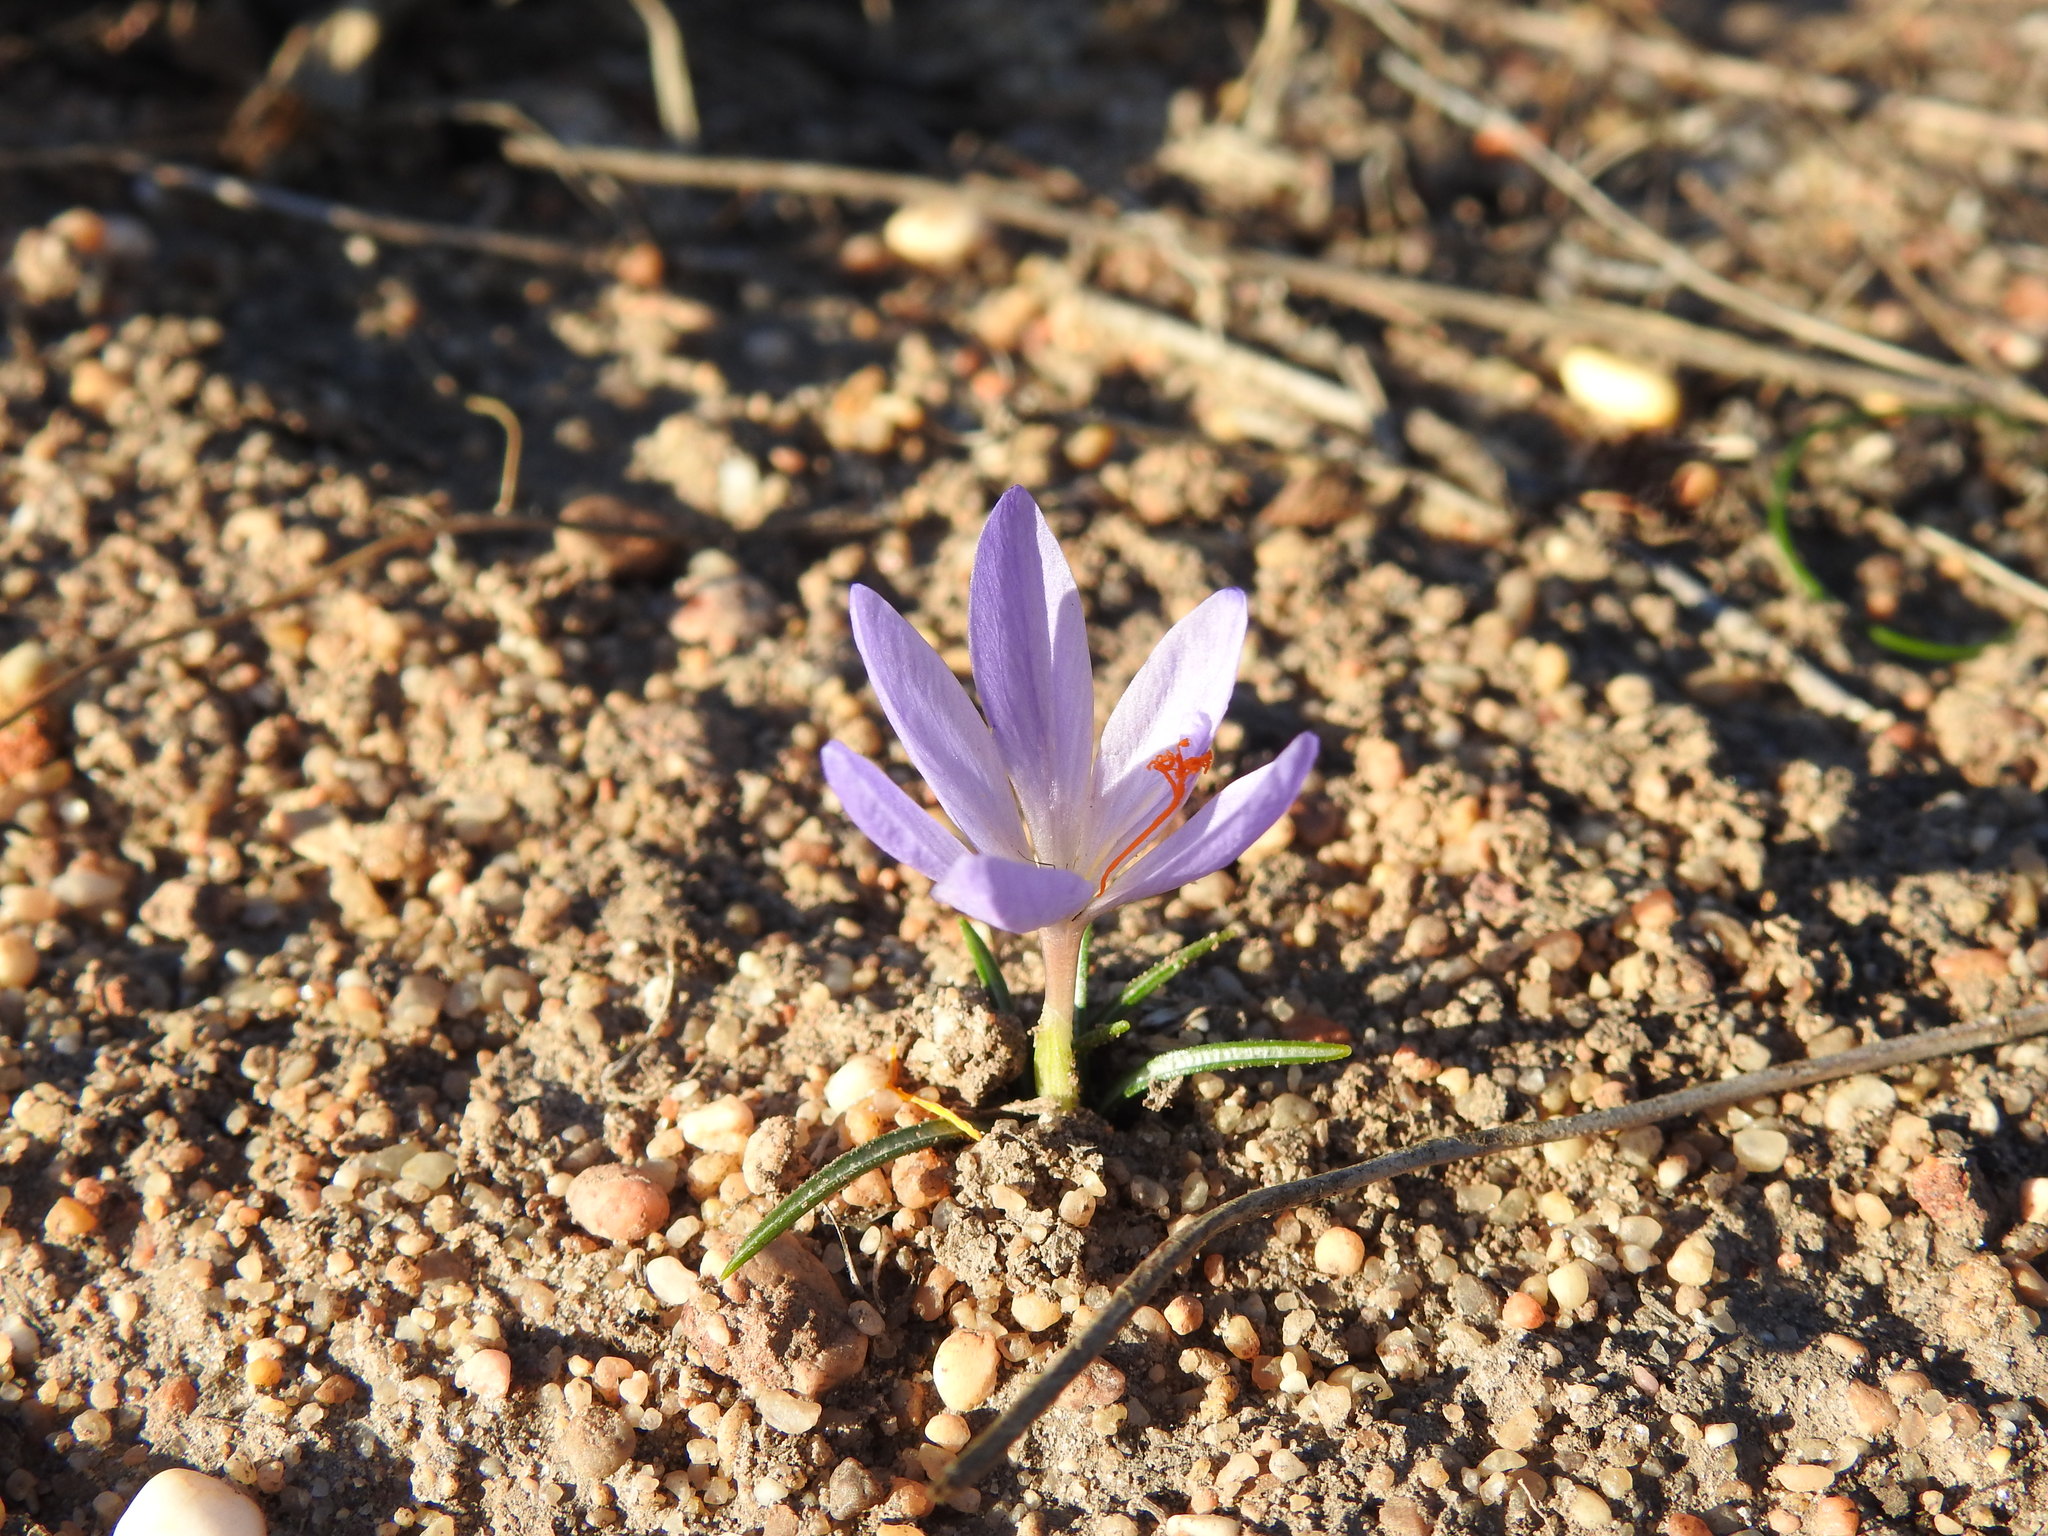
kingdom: Plantae
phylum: Tracheophyta
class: Liliopsida
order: Asparagales
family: Iridaceae
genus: Crocus
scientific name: Crocus serotinus
